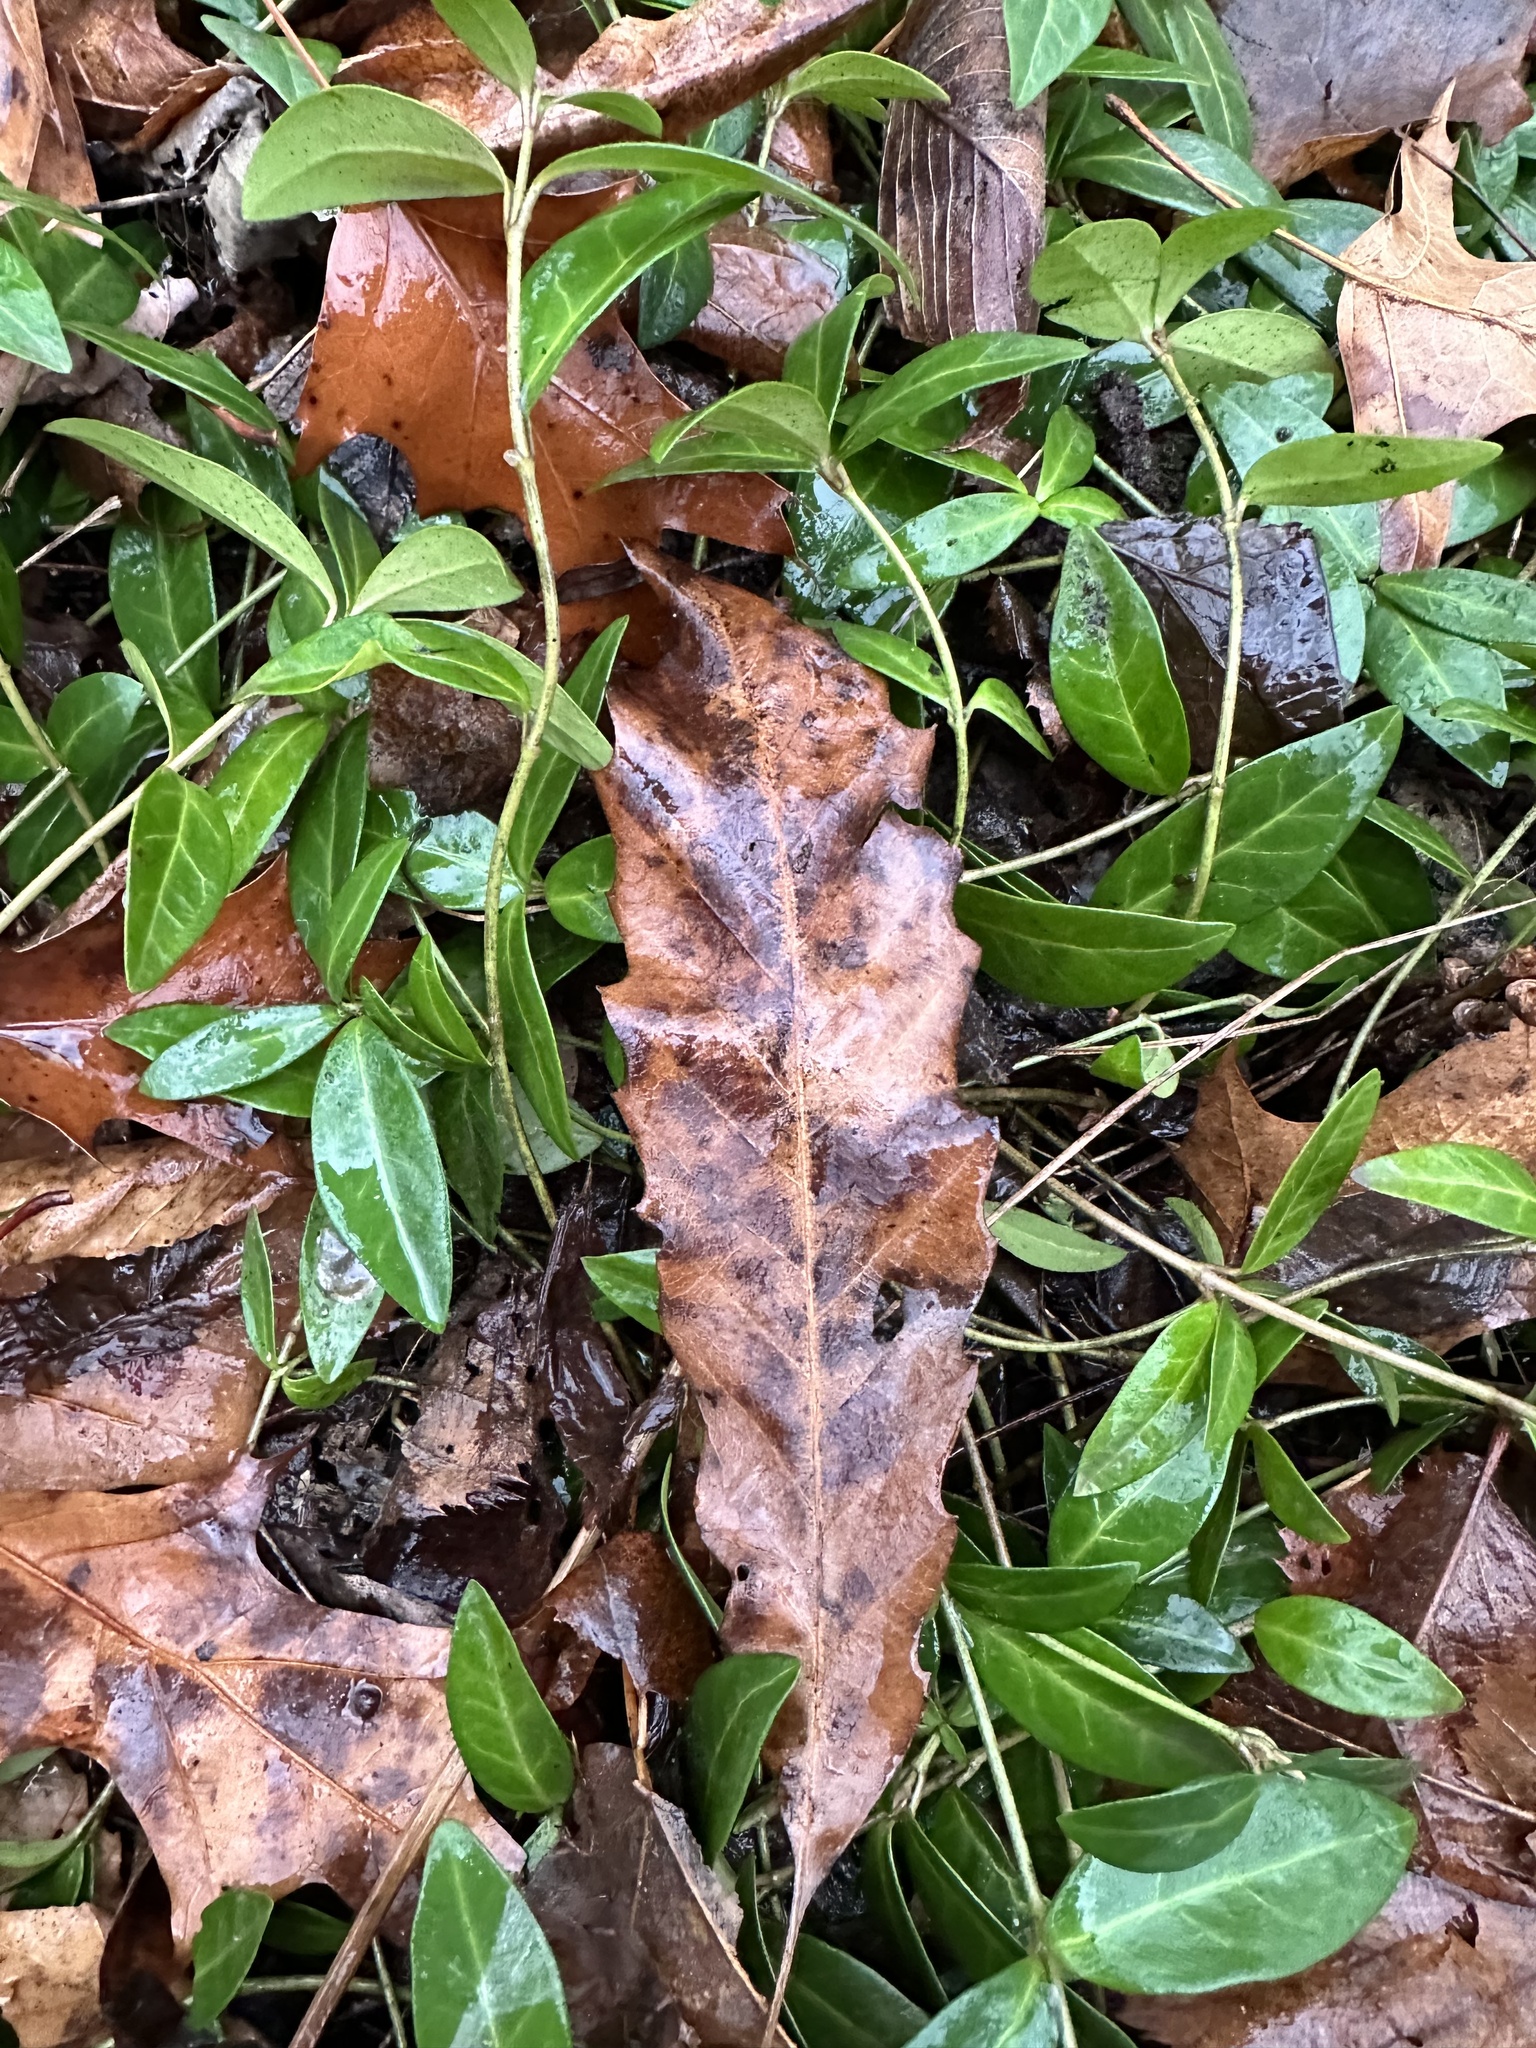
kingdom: Plantae
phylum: Tracheophyta
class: Magnoliopsida
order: Fagales
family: Fagaceae
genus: Quercus
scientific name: Quercus muehlenbergii
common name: Chinkapin oak
